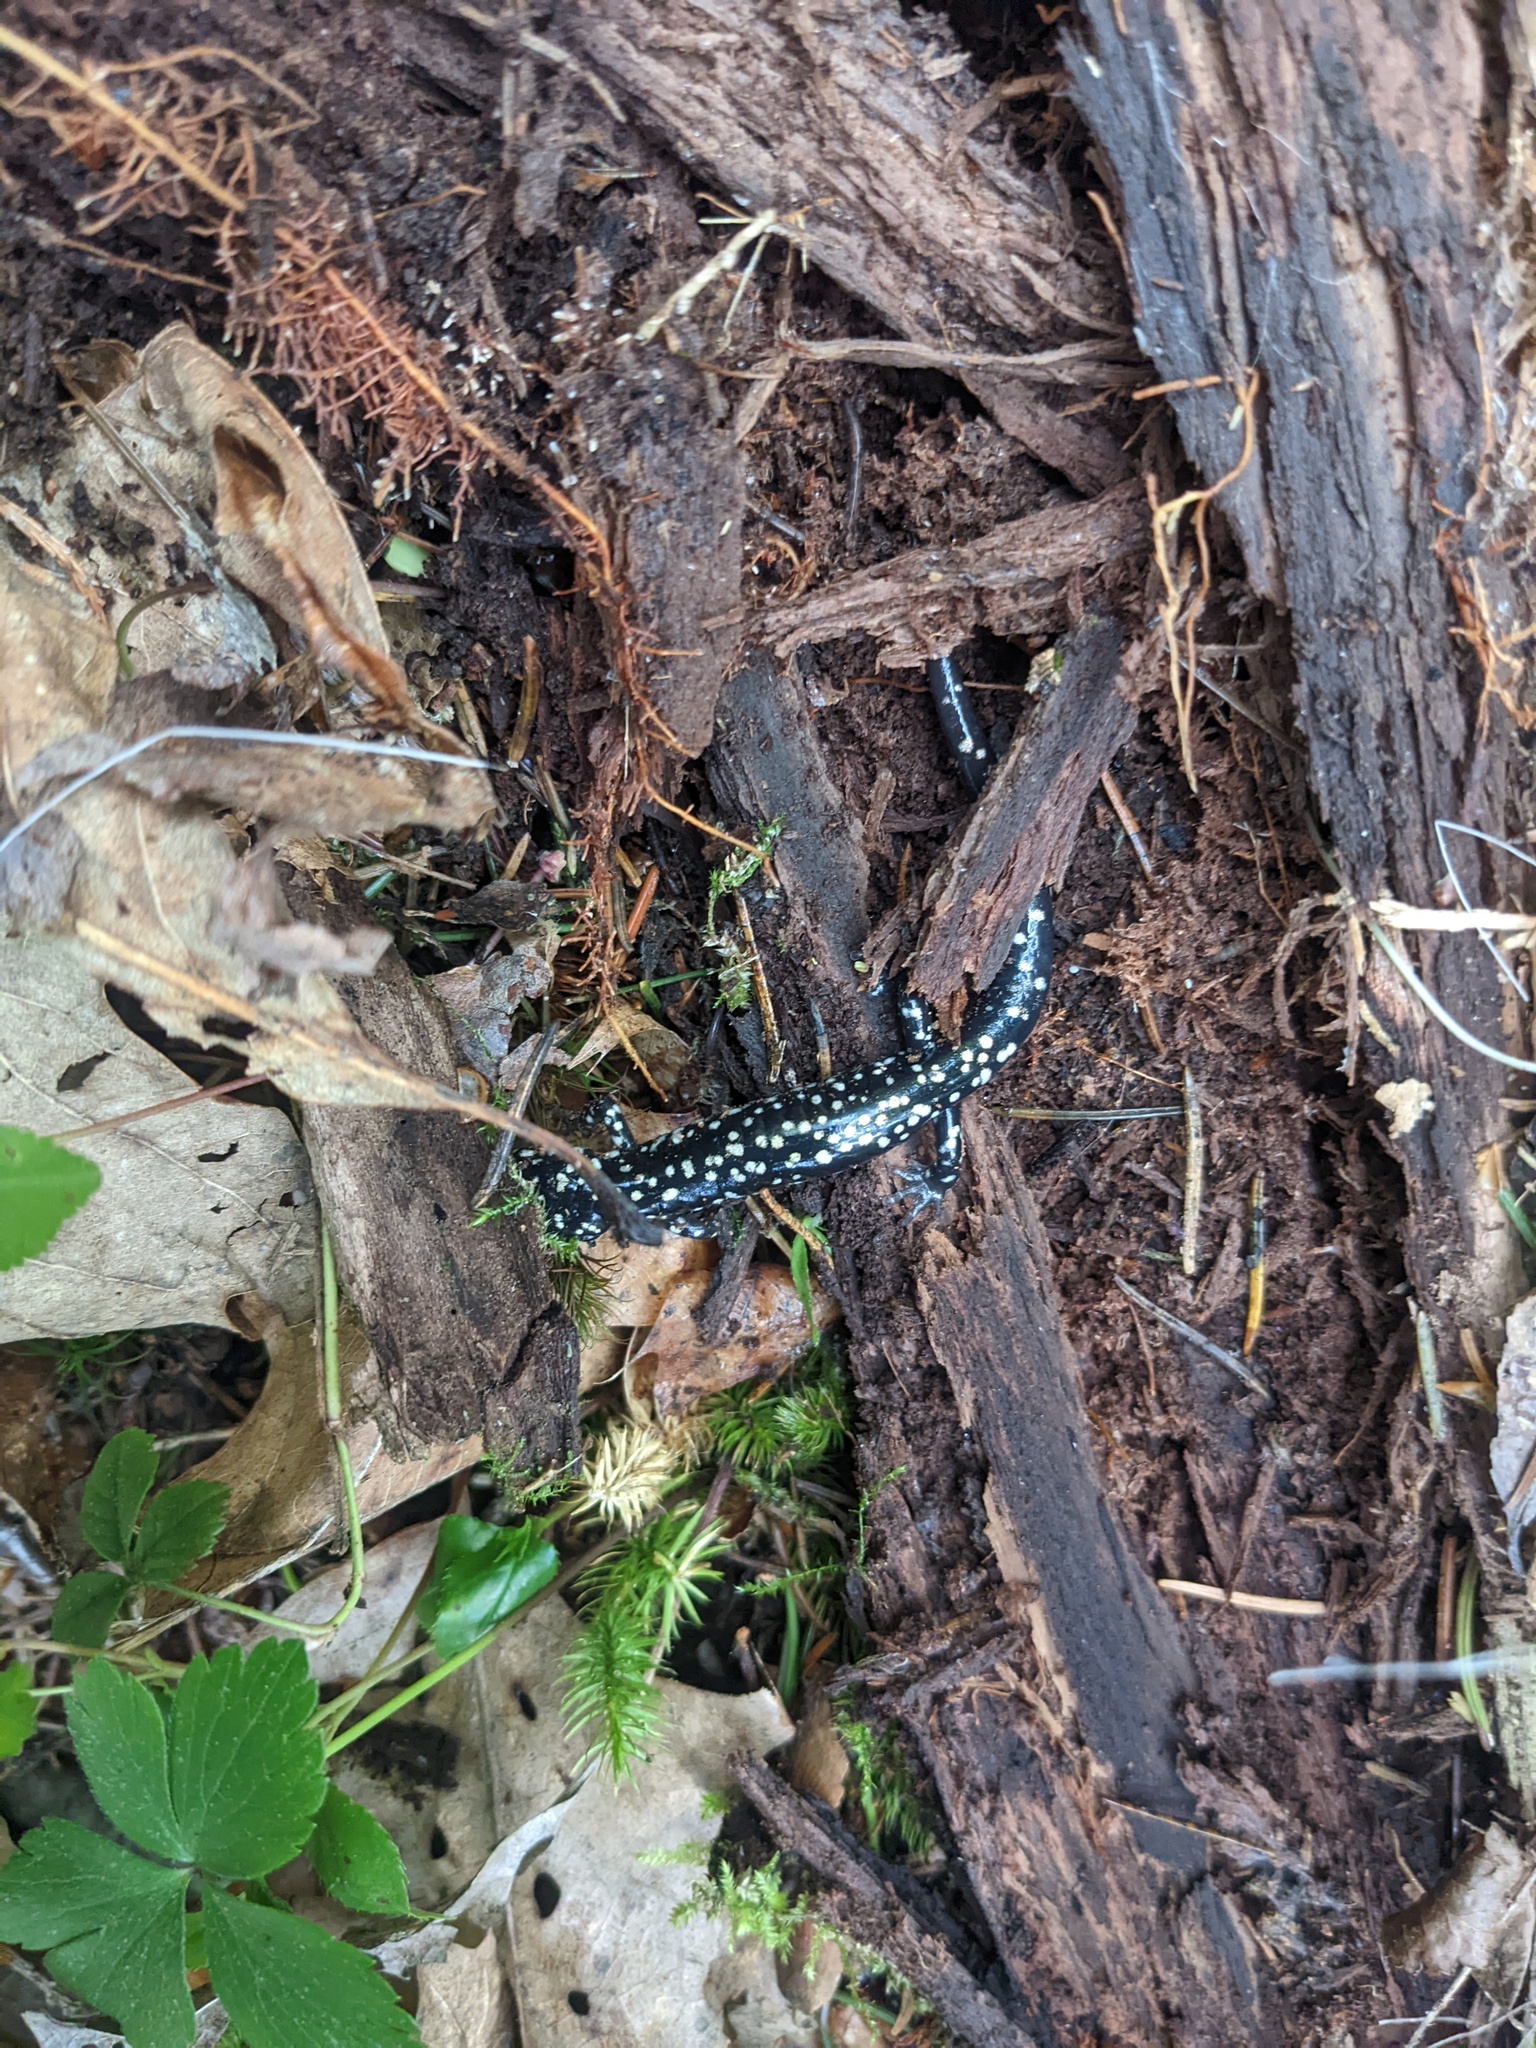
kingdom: Animalia
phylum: Chordata
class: Amphibia
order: Caudata
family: Plethodontidae
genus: Plethodon
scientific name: Plethodon glutinosus
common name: Northern slimy salamander
